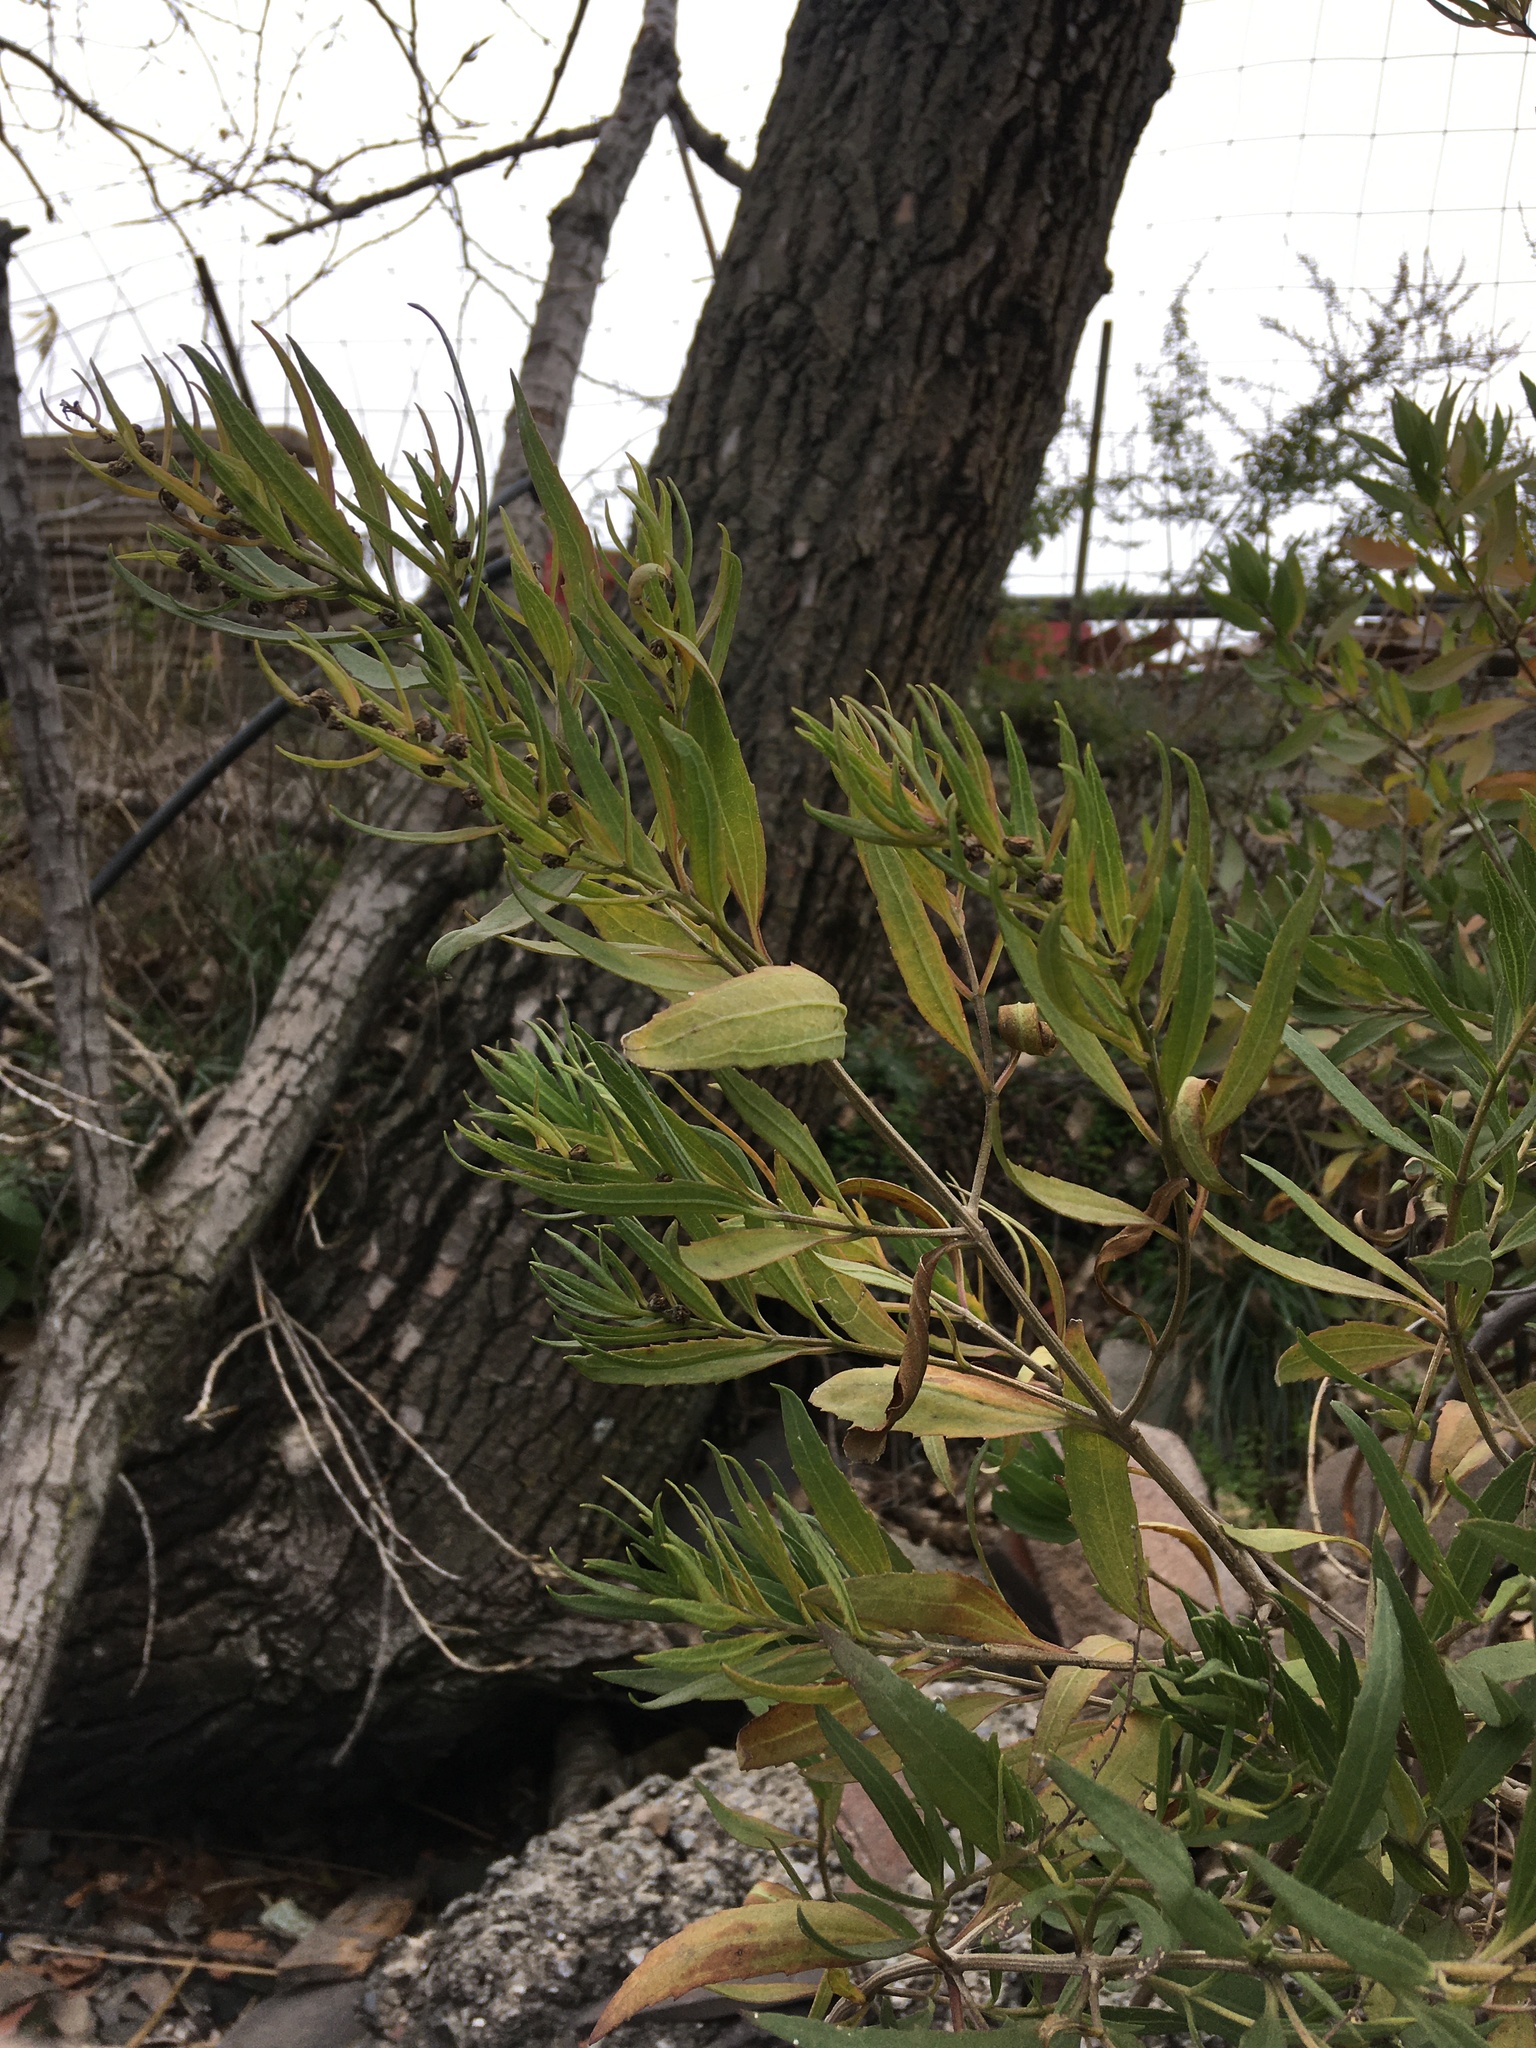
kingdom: Plantae
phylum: Tracheophyta
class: Magnoliopsida
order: Asterales
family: Asteraceae
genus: Iva
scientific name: Iva frutescens
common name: Big-leaved marsh-elder
